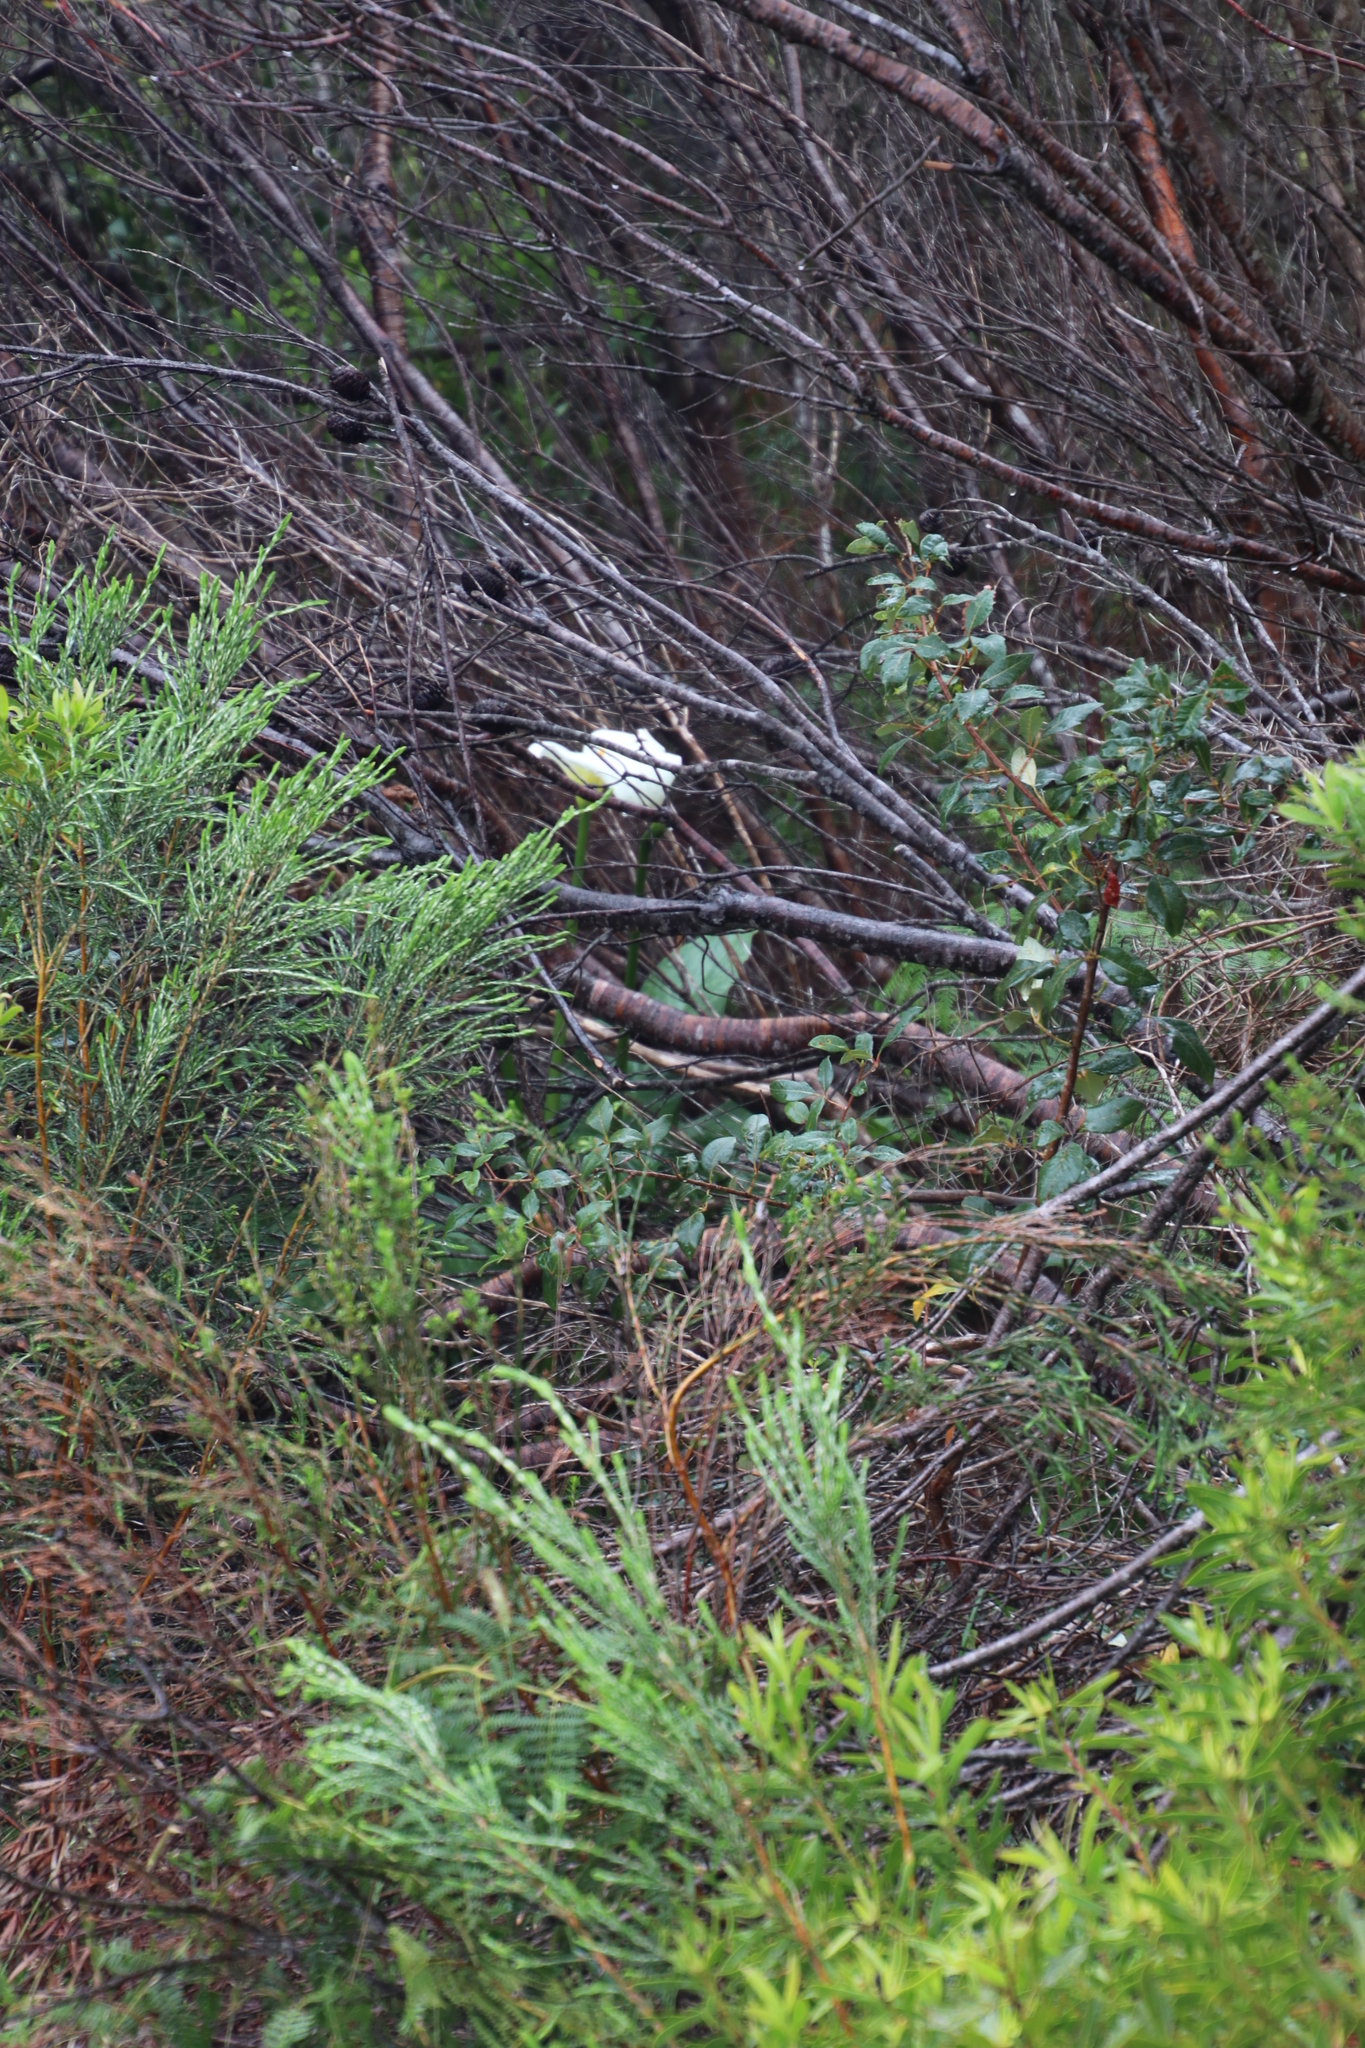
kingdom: Plantae
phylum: Tracheophyta
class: Liliopsida
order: Alismatales
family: Araceae
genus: Zantedeschia
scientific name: Zantedeschia aethiopica
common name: Altar-lily
